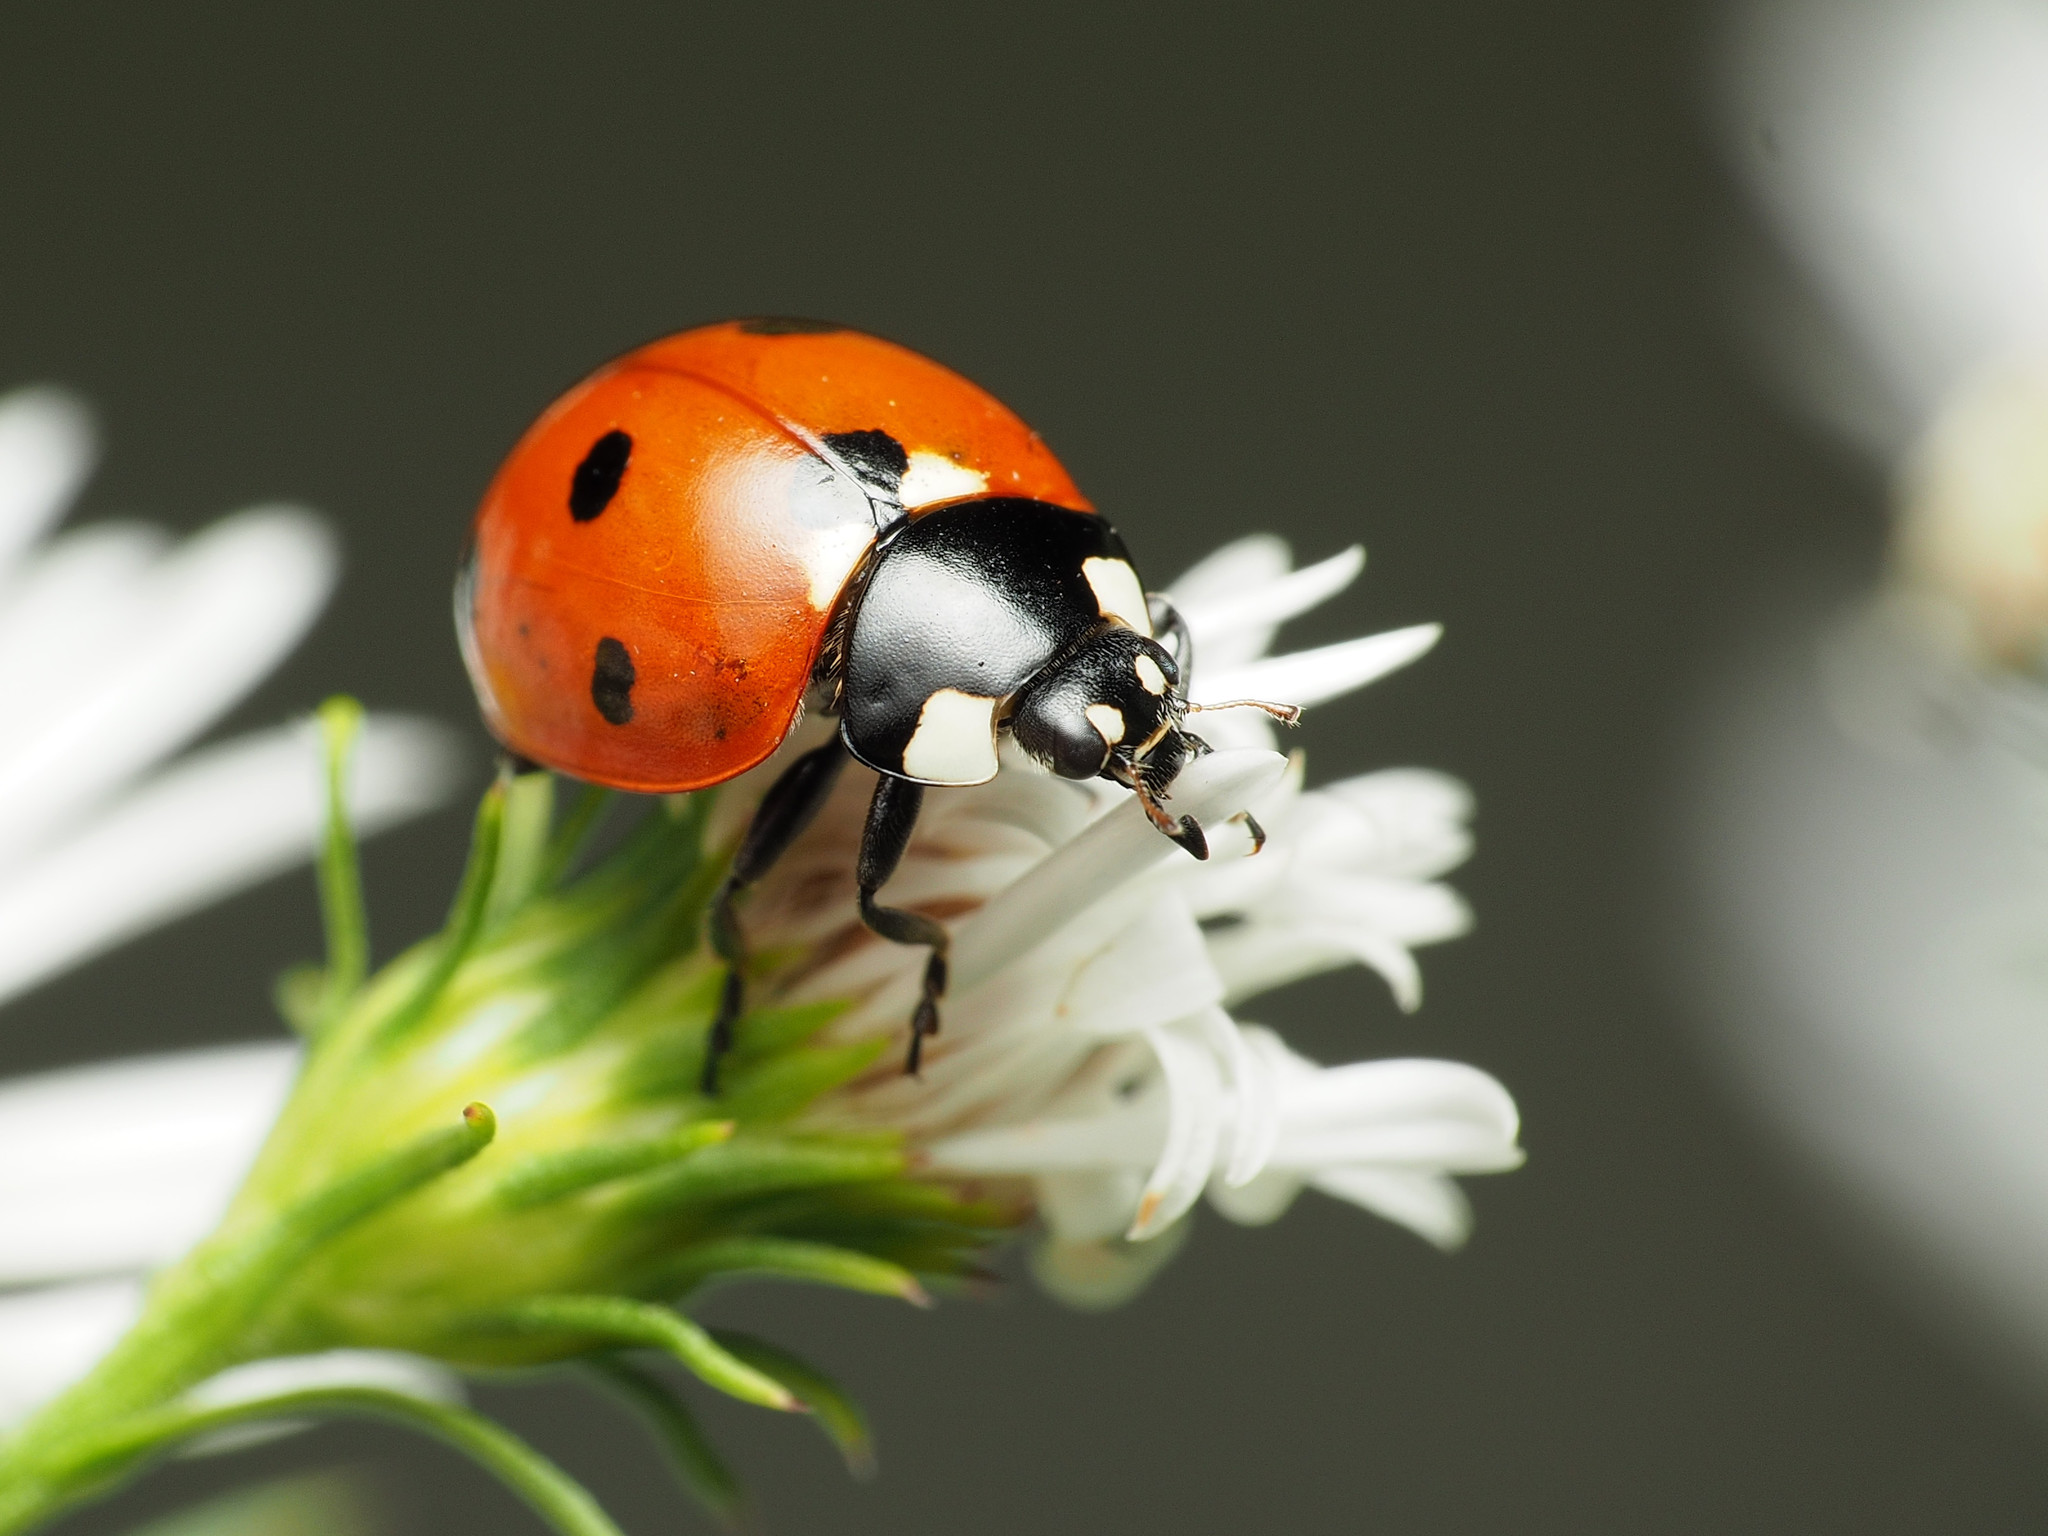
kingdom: Animalia
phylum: Arthropoda
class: Insecta
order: Coleoptera
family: Coccinellidae
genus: Coccinella
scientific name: Coccinella septempunctata
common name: Sevenspotted lady beetle
